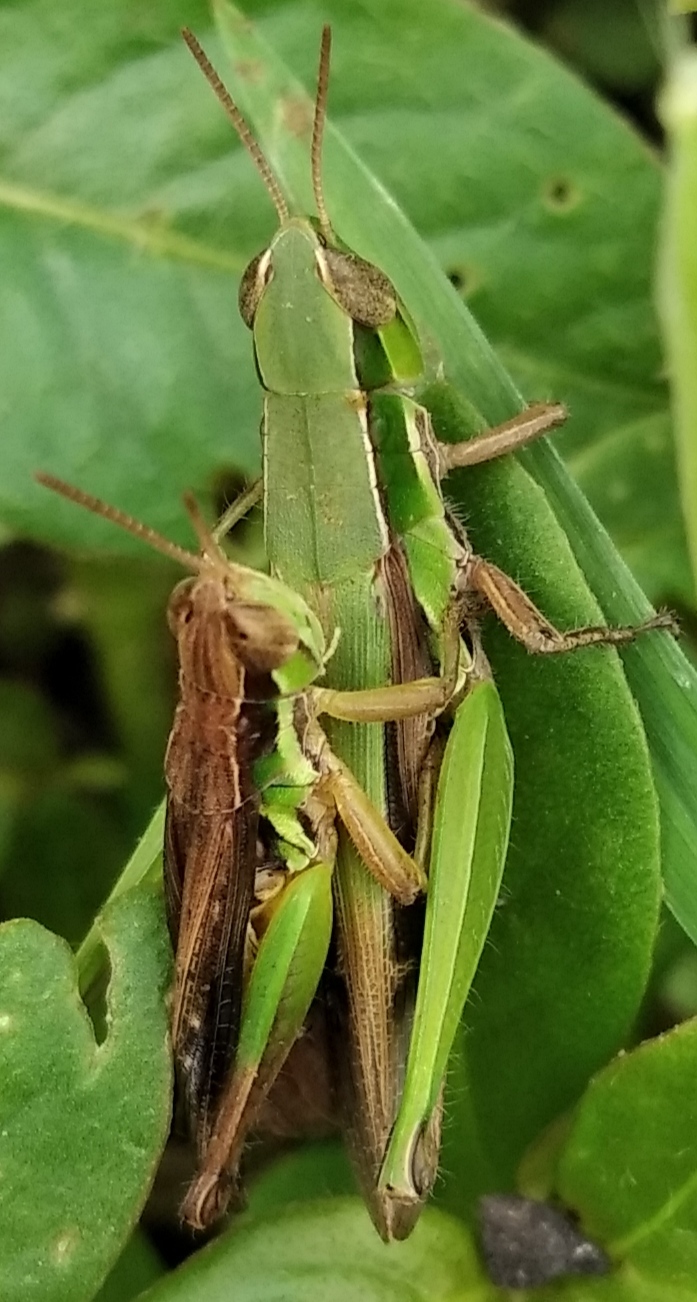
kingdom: Animalia
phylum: Arthropoda
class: Insecta
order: Orthoptera
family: Acrididae
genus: Spathosternum
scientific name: Spathosternum prasiniferum
